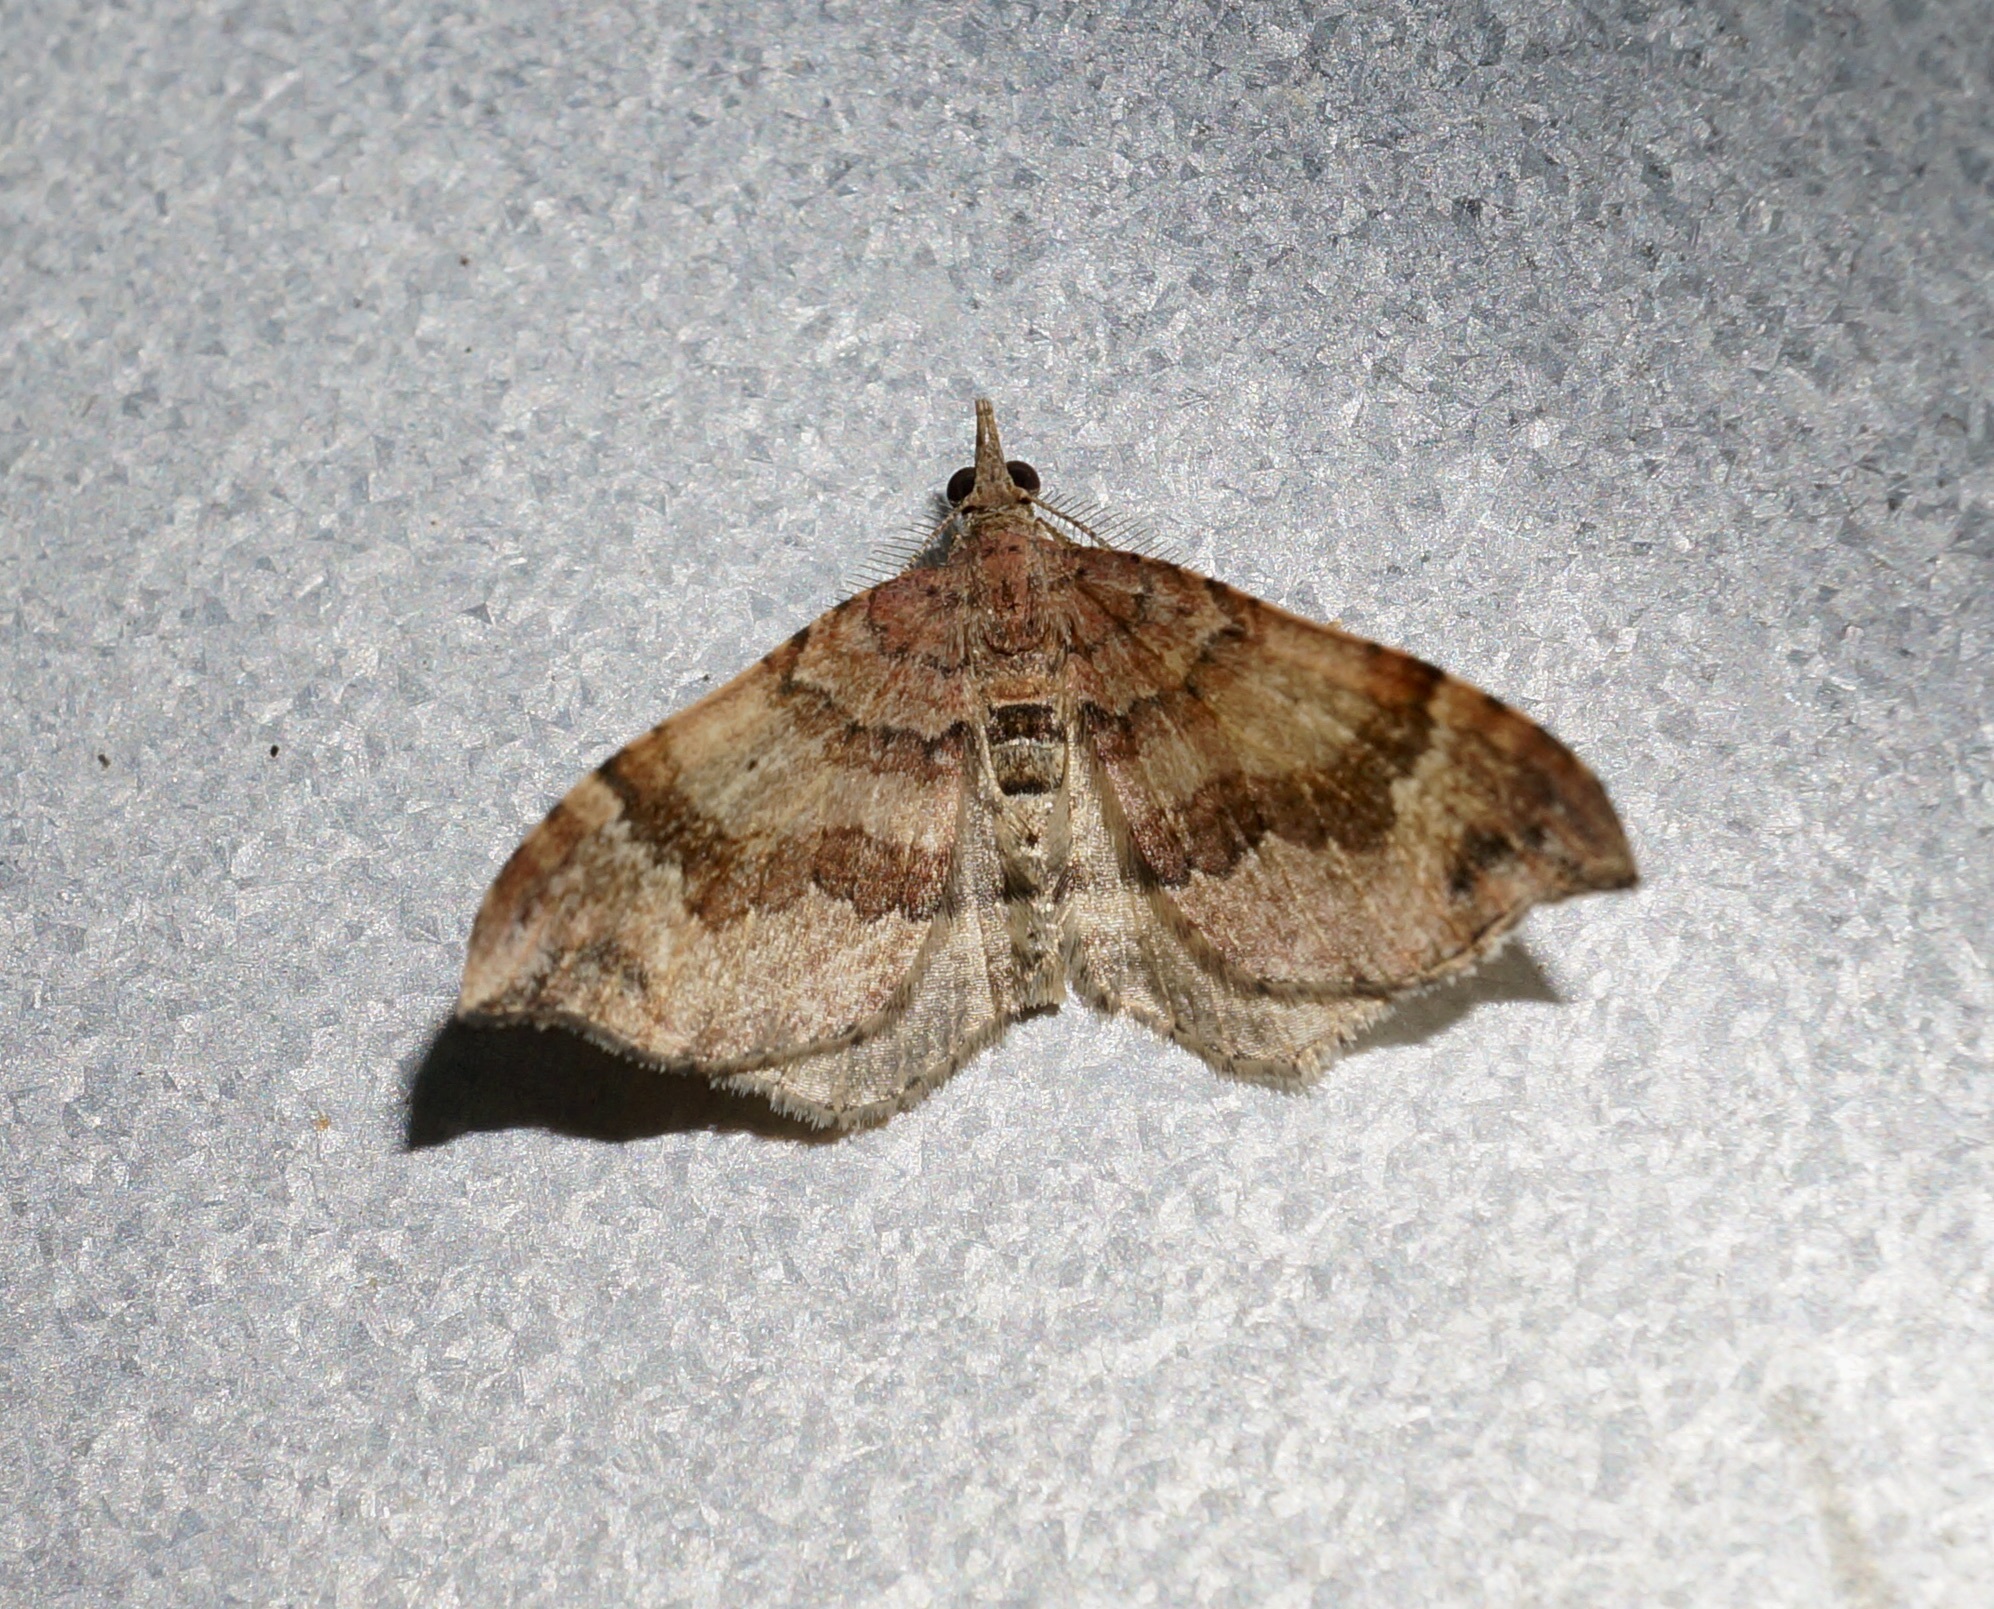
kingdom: Animalia
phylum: Arthropoda
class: Insecta
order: Lepidoptera
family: Geometridae
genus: Homodotis
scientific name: Homodotis megaspilata
